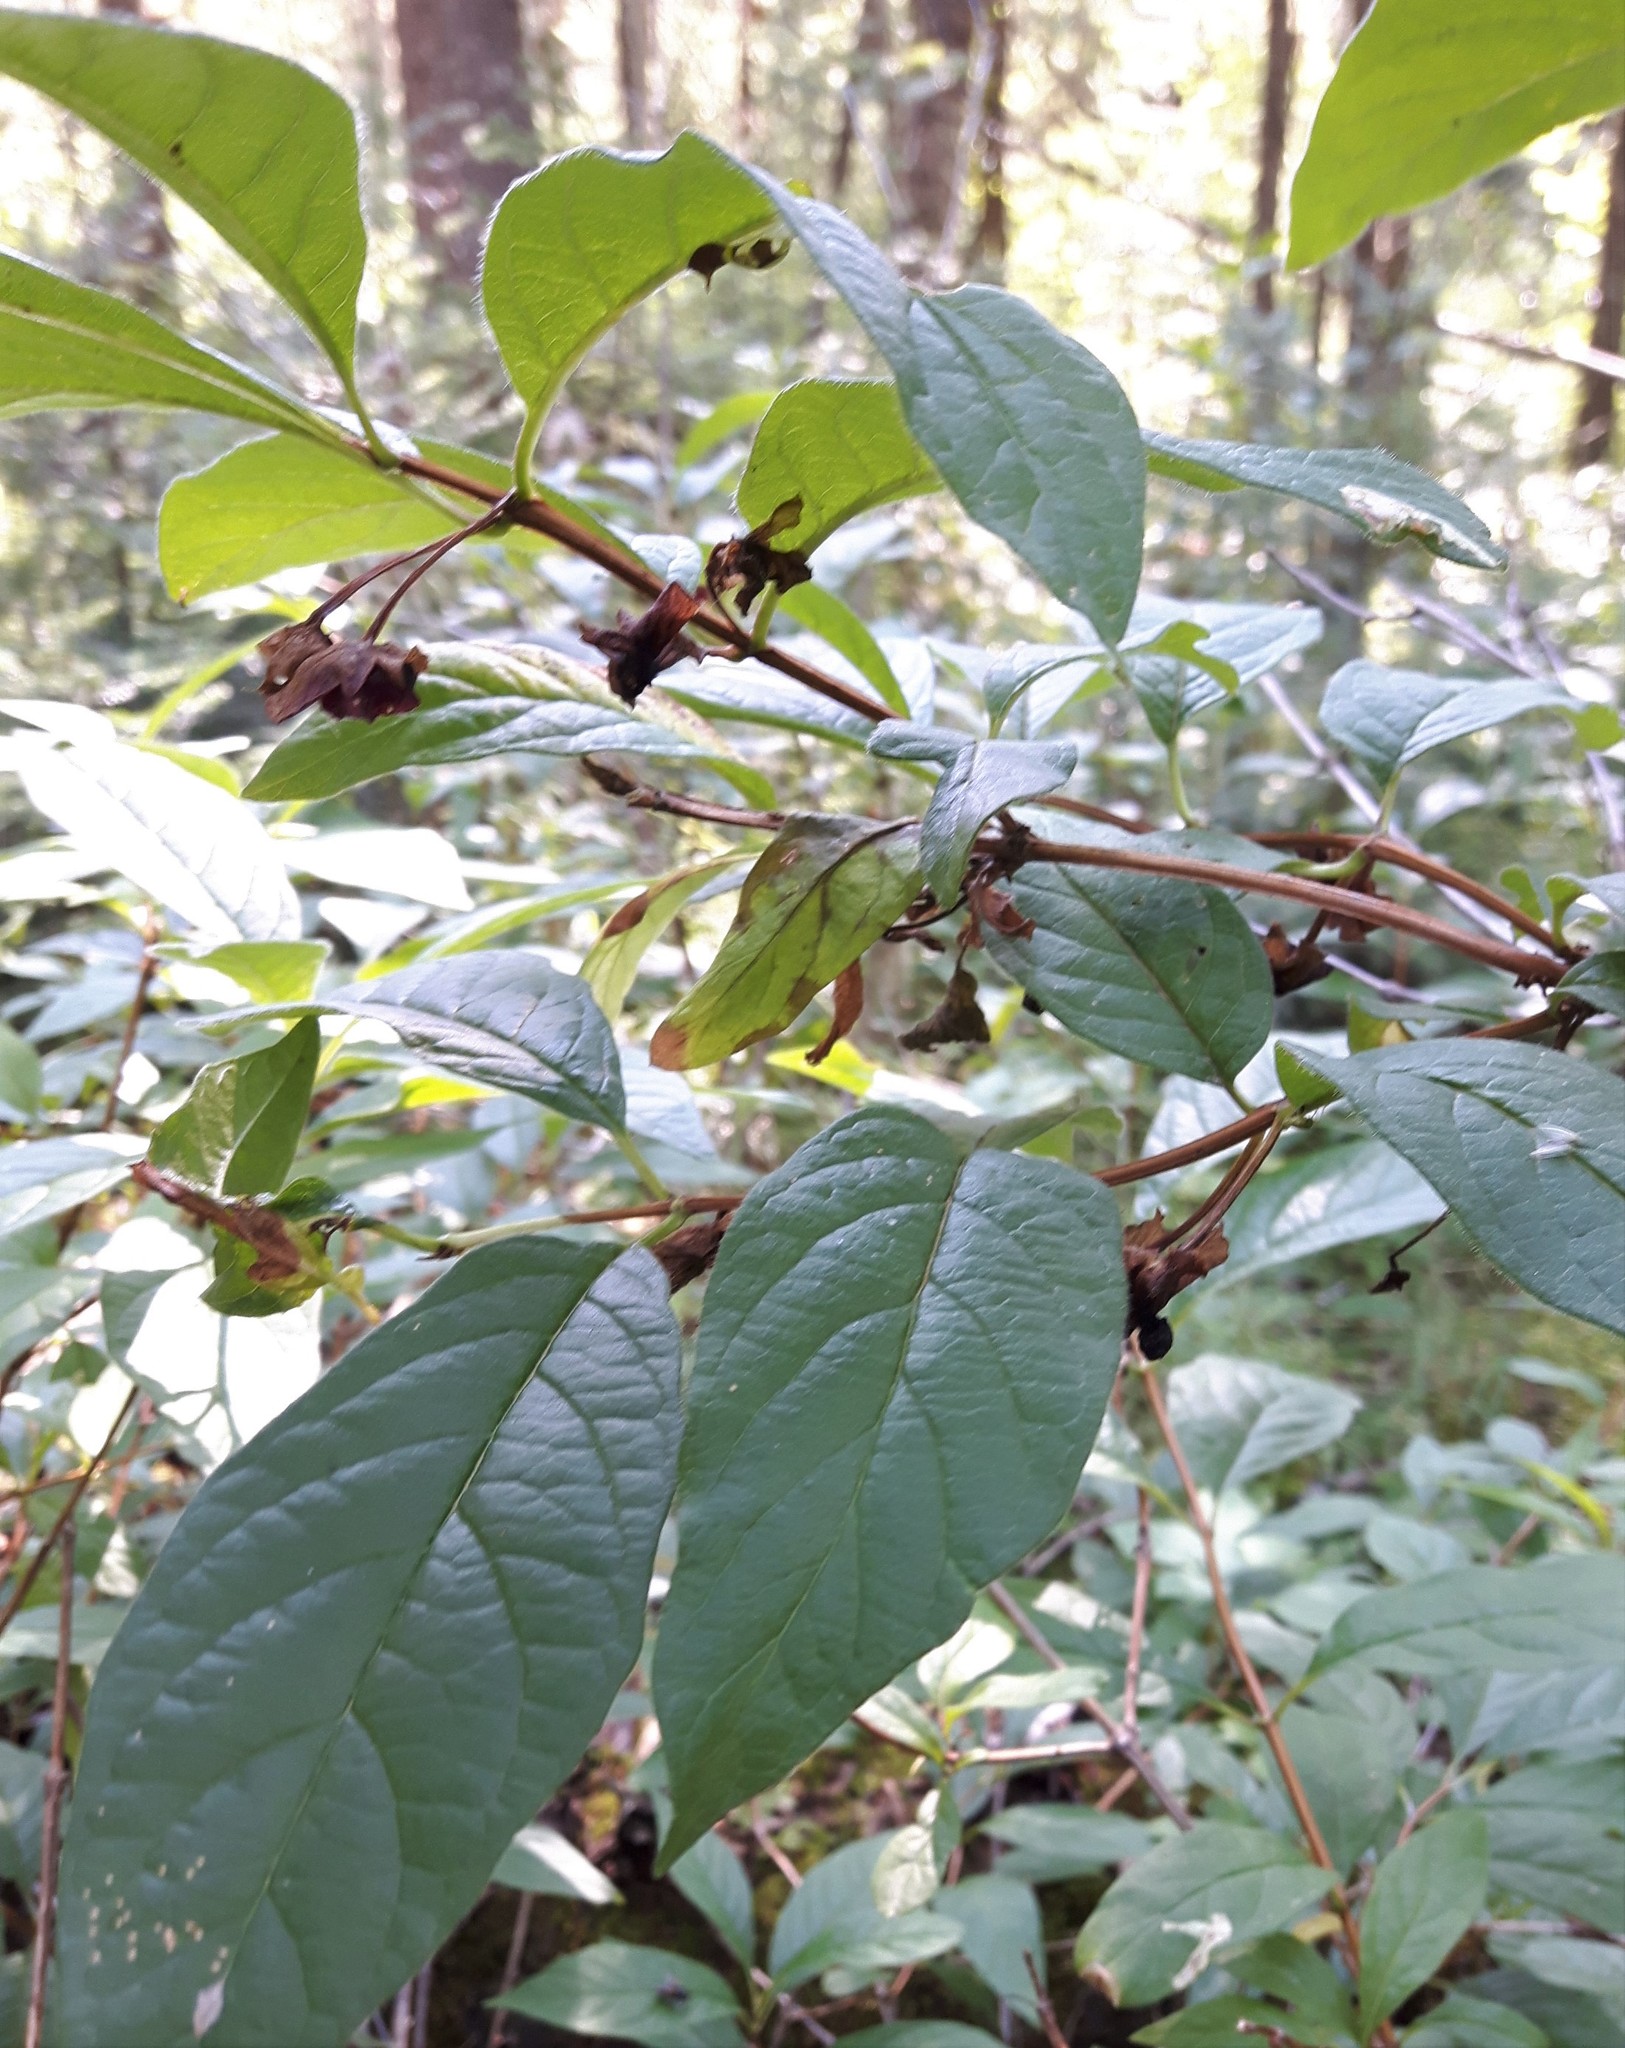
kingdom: Plantae
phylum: Tracheophyta
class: Magnoliopsida
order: Dipsacales
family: Caprifoliaceae
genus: Lonicera
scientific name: Lonicera involucrata
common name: Californian honeysuckle
